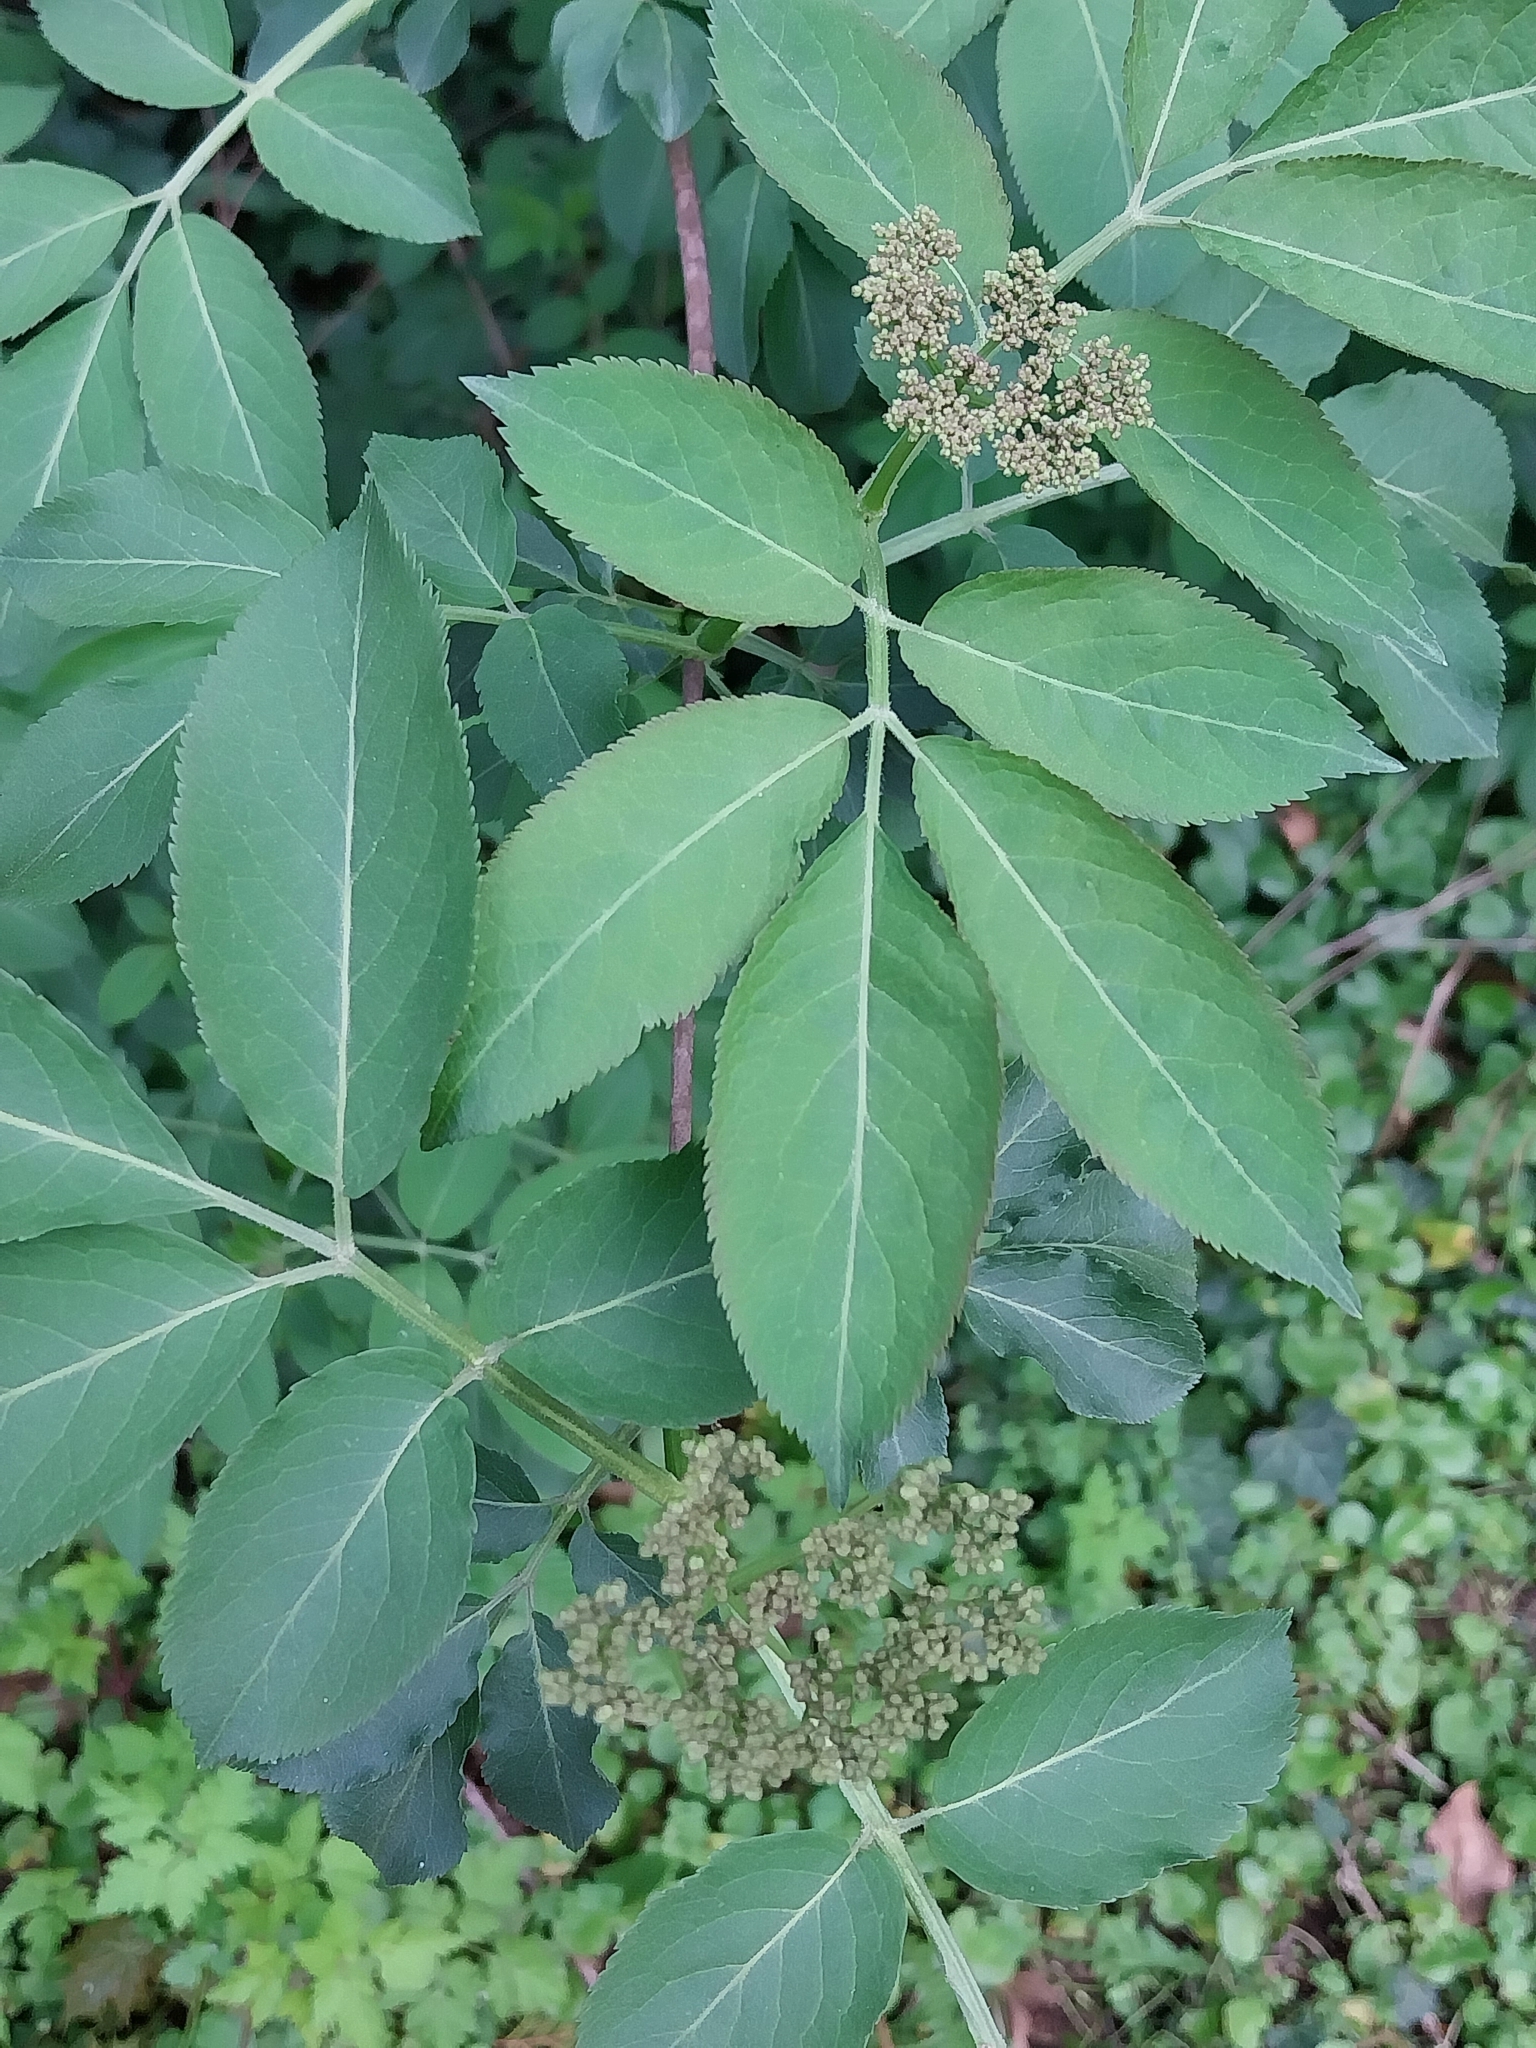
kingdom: Plantae
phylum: Tracheophyta
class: Magnoliopsida
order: Dipsacales
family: Viburnaceae
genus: Sambucus
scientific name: Sambucus nigra
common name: Elder
